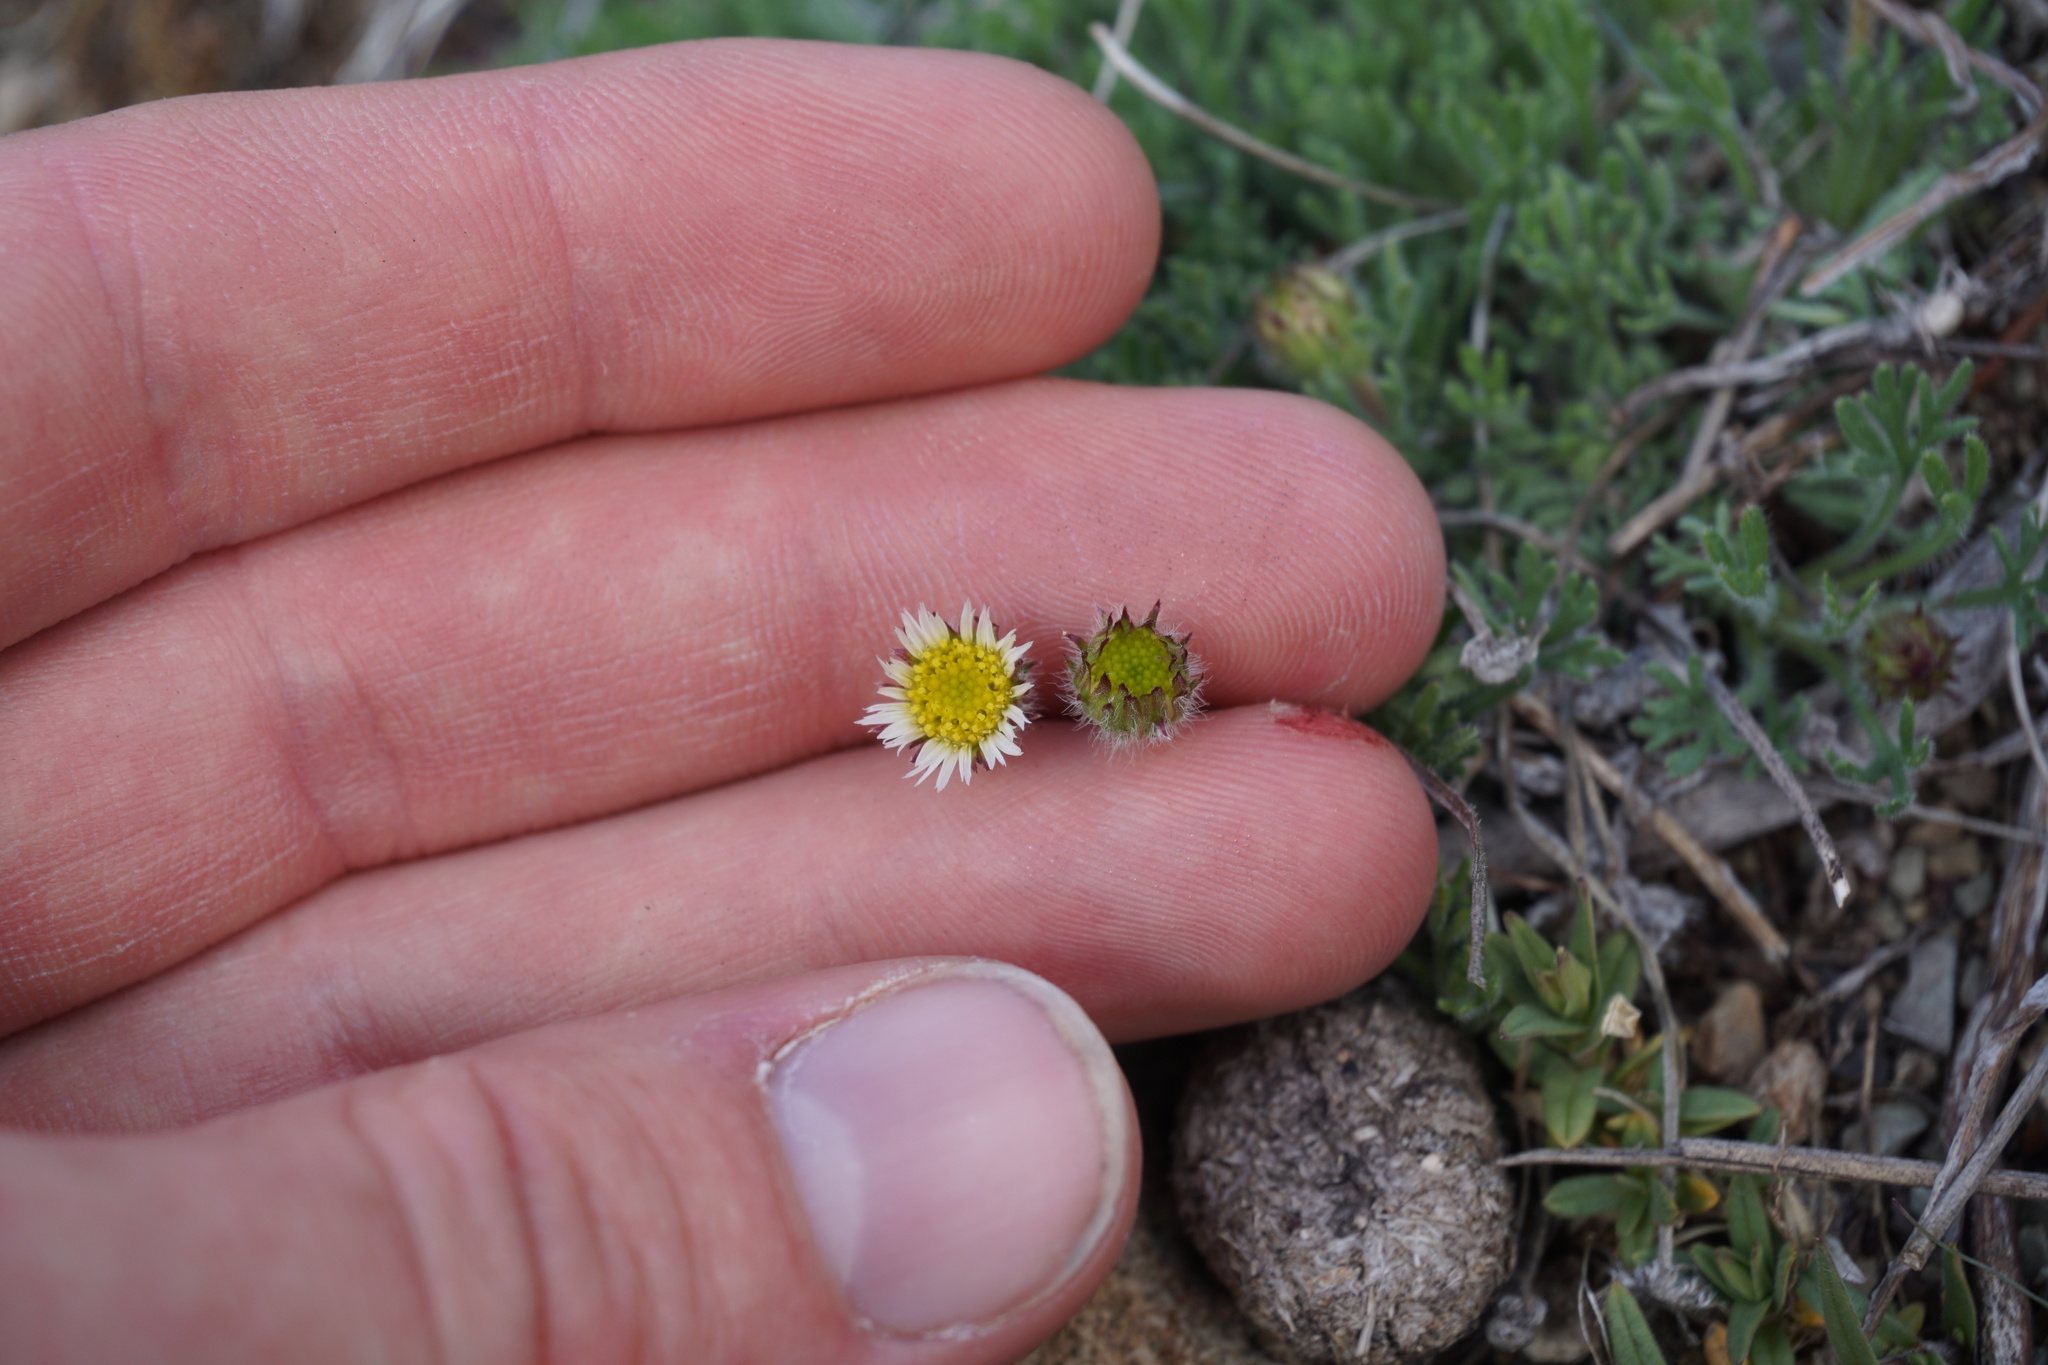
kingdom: Plantae
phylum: Tracheophyta
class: Magnoliopsida
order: Asterales
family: Asteraceae
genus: Erigeron
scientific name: Erigeron compositus
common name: Dwarf mountain fleabane
